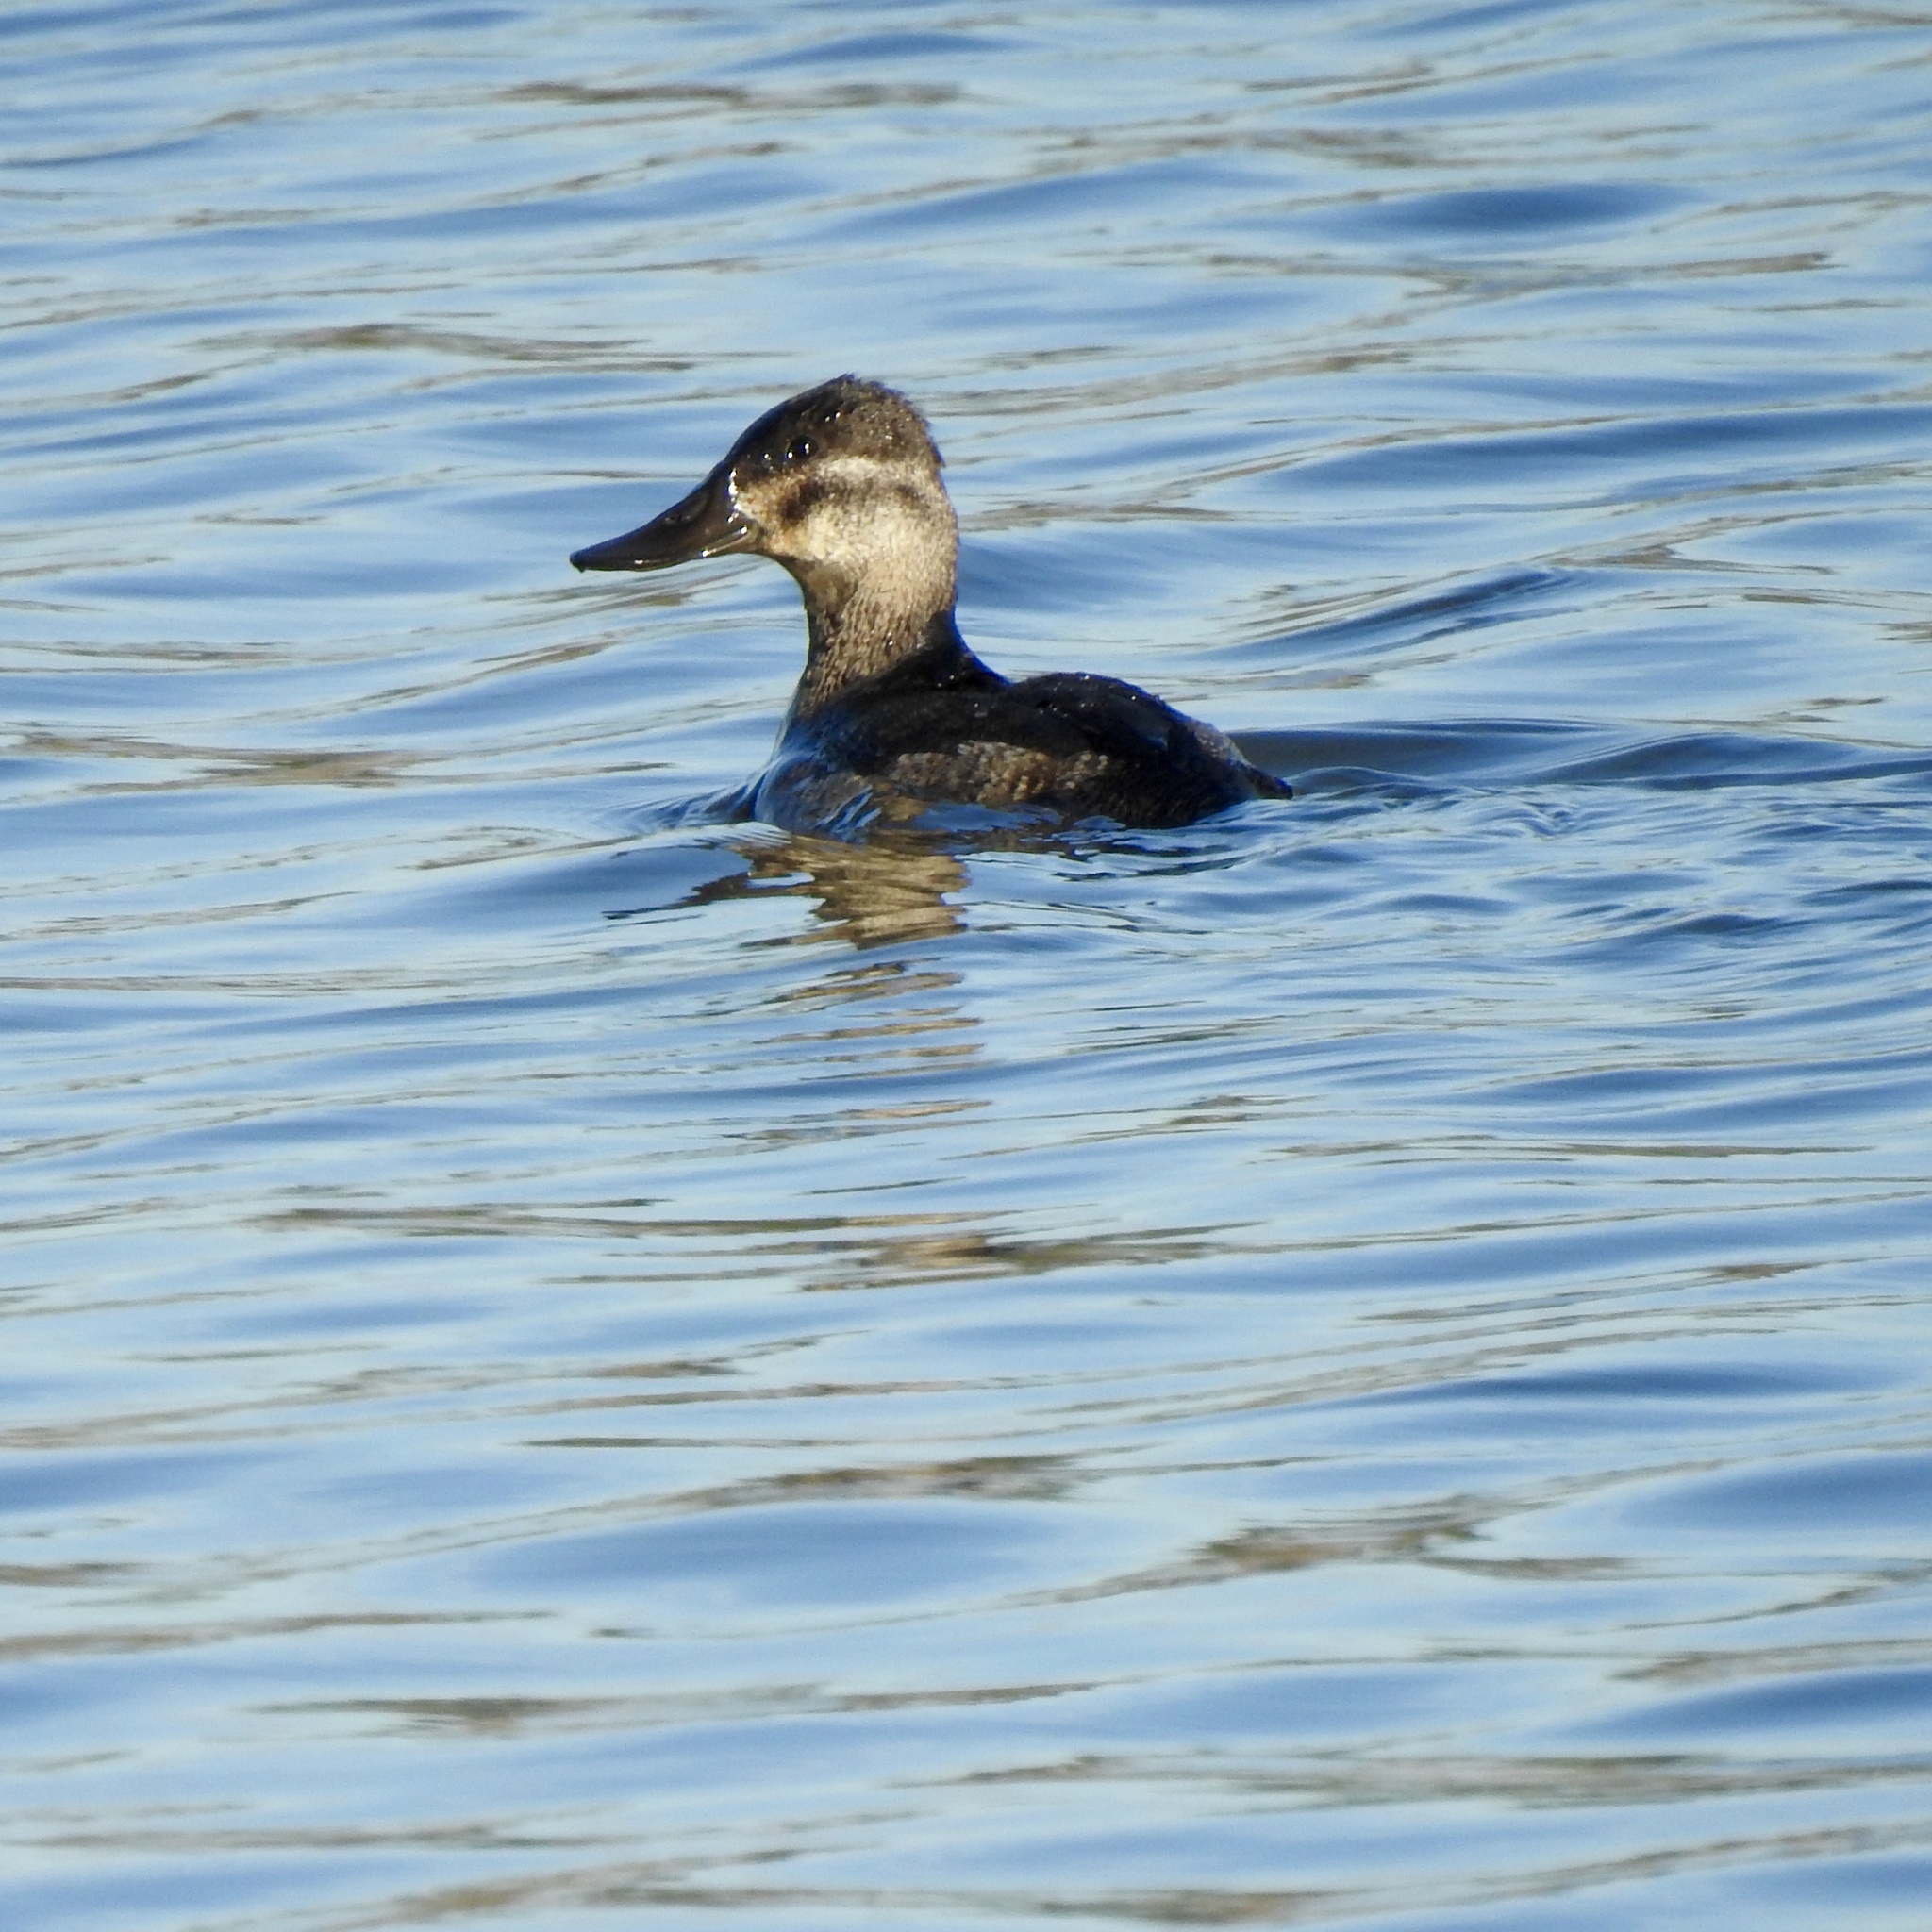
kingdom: Animalia
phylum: Chordata
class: Aves
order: Anseriformes
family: Anatidae
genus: Oxyura
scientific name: Oxyura jamaicensis
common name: Ruddy duck
